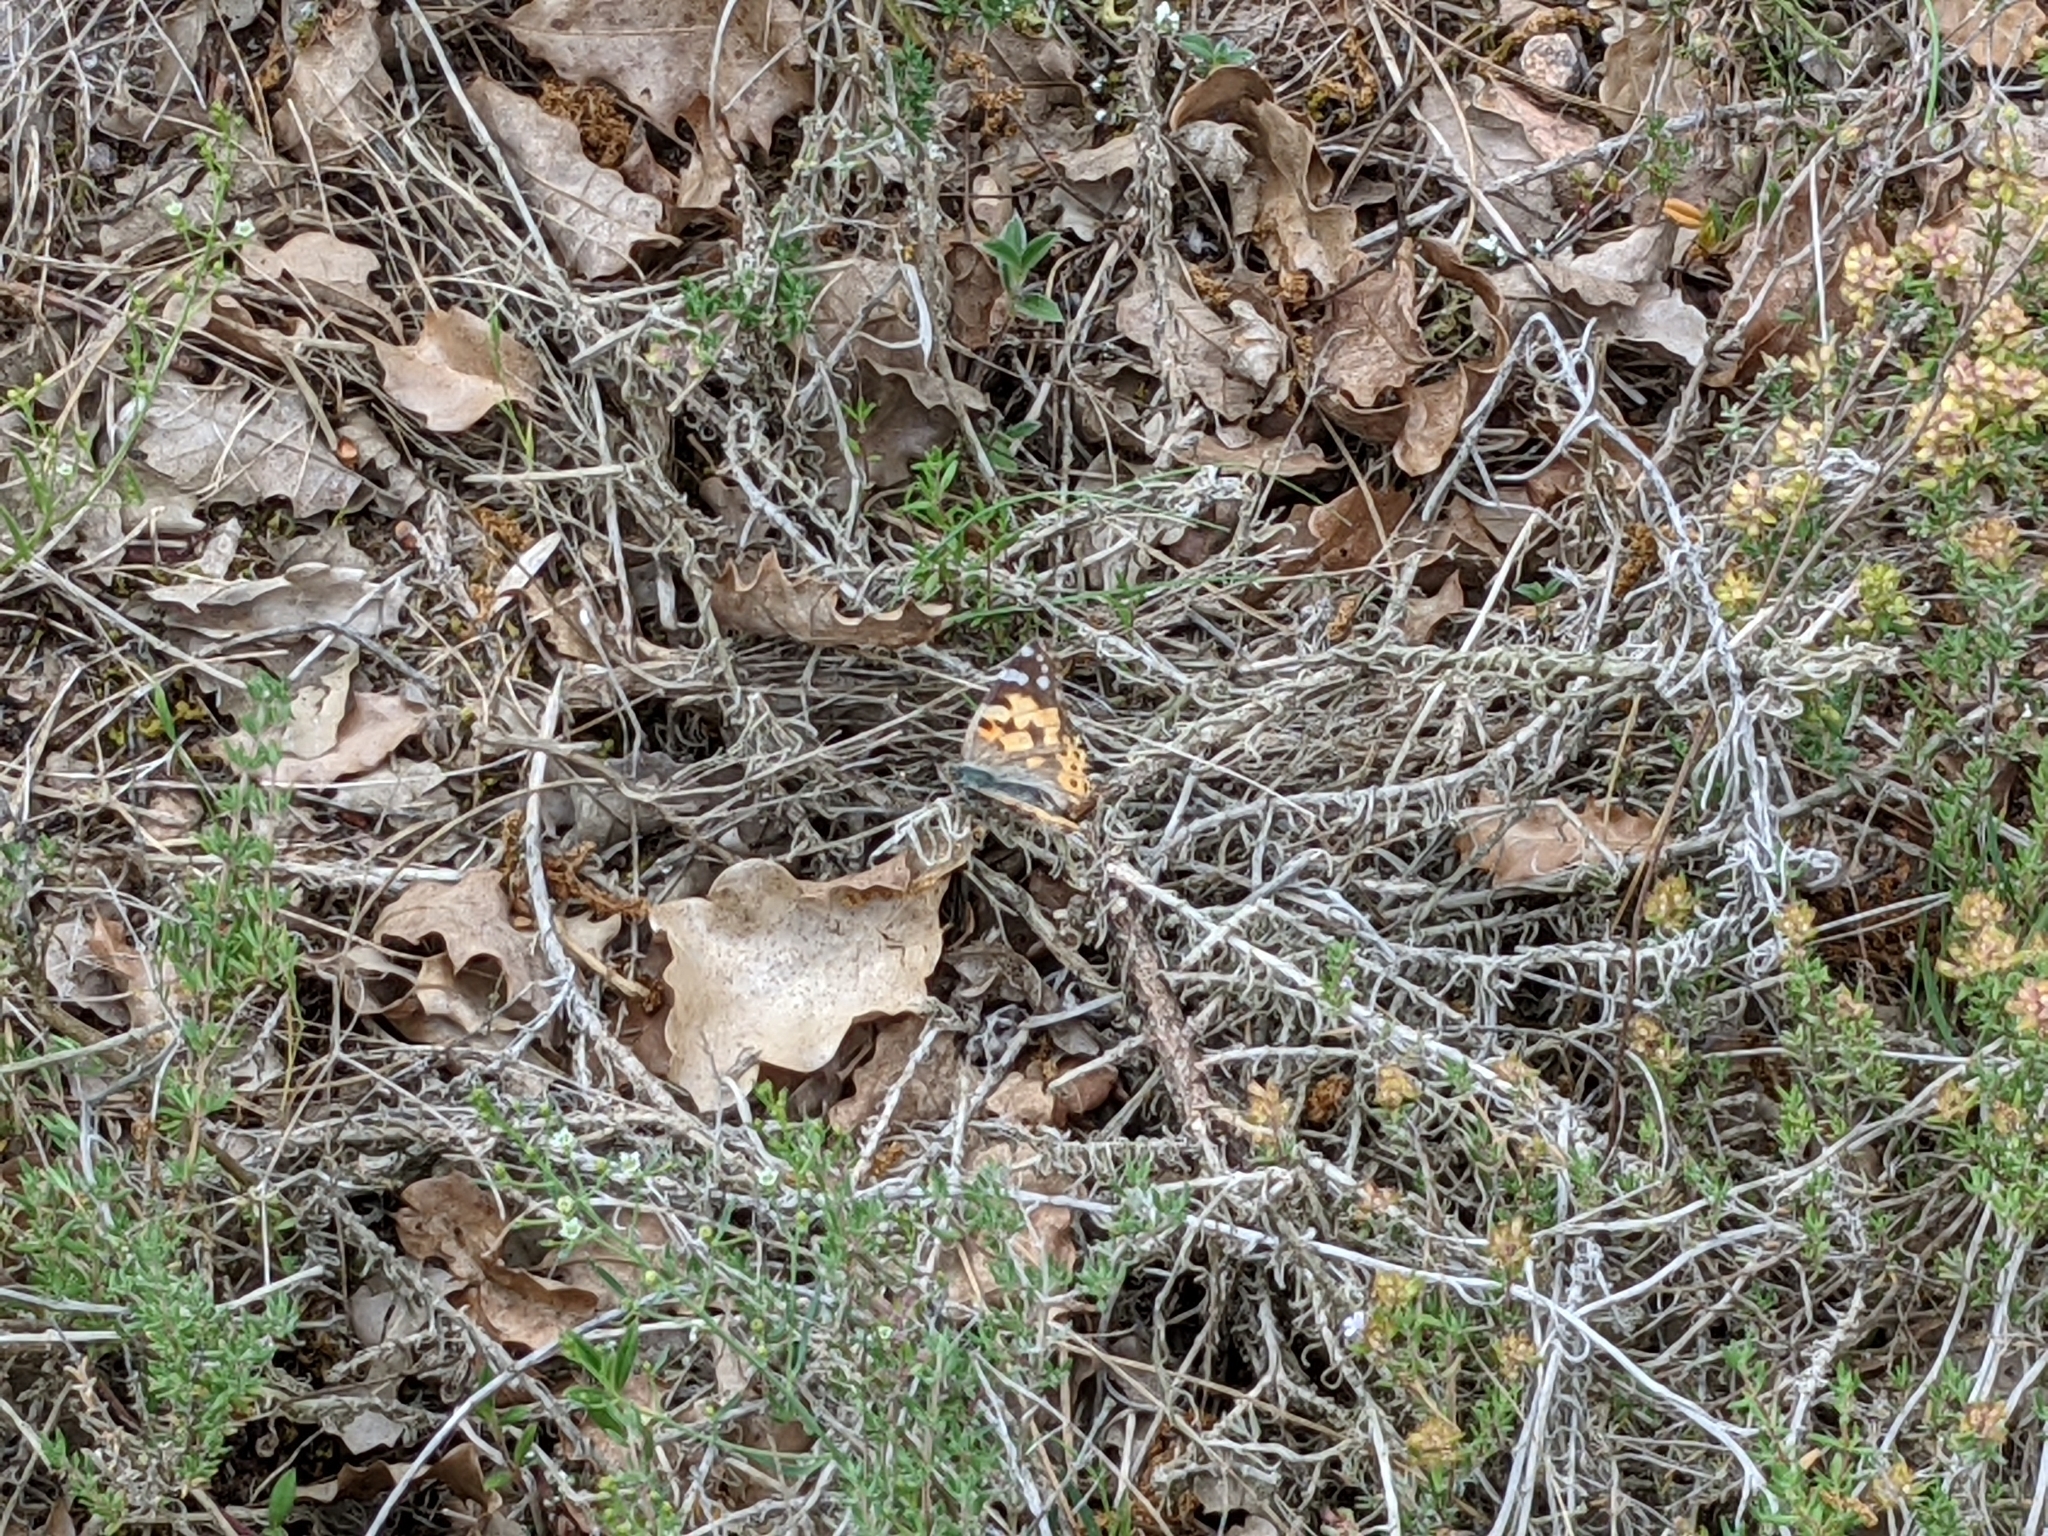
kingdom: Animalia
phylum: Arthropoda
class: Insecta
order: Lepidoptera
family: Nymphalidae
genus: Vanessa
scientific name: Vanessa cardui
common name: Painted lady
